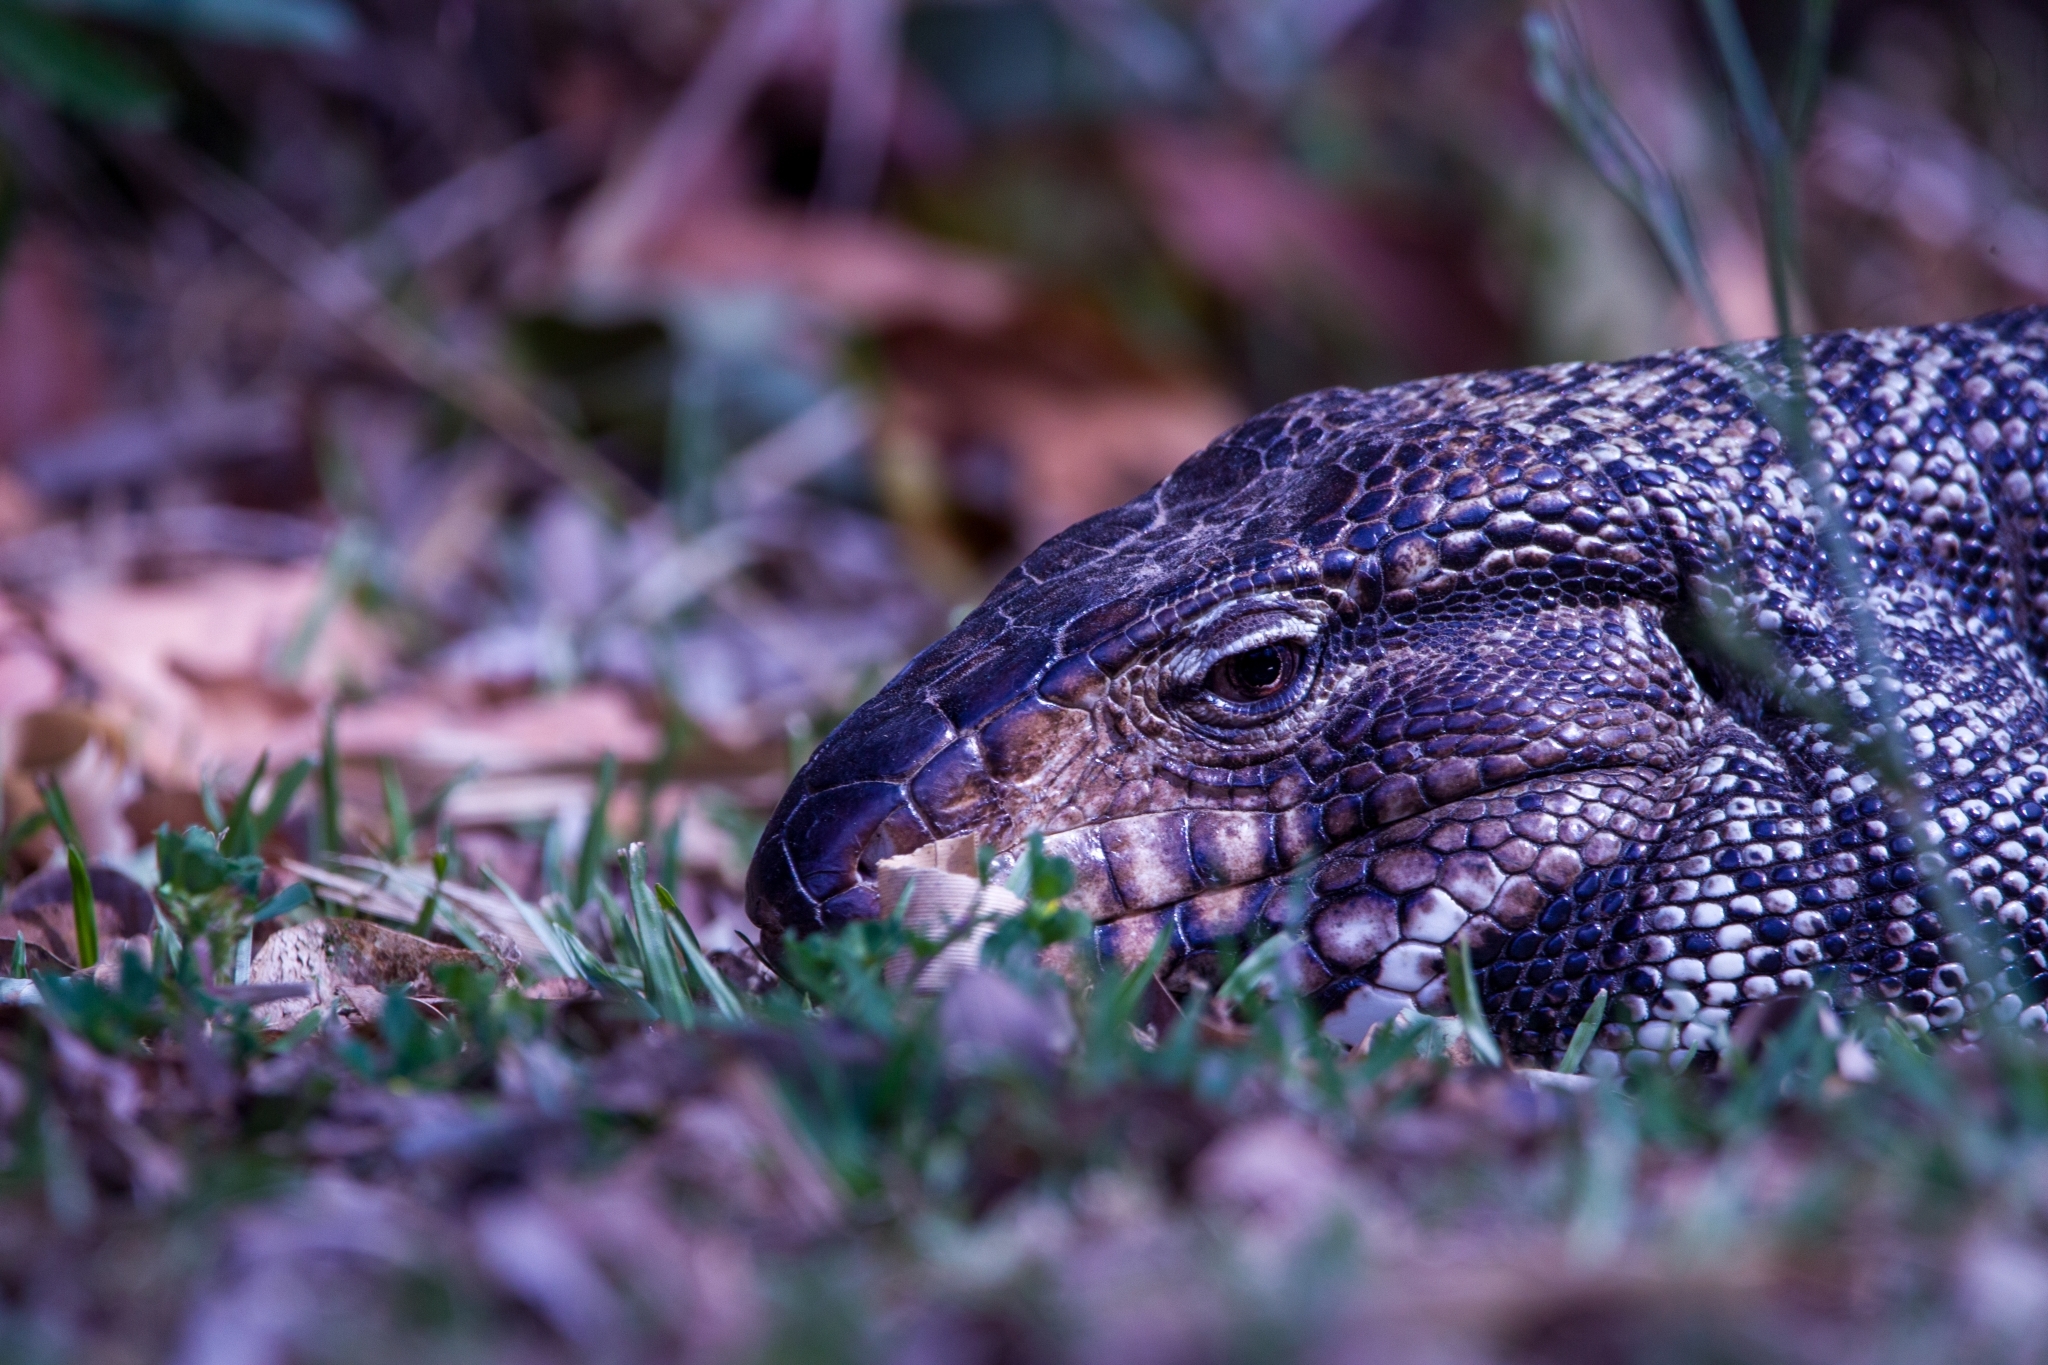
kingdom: Animalia
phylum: Chordata
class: Squamata
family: Teiidae
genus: Salvator
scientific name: Salvator merianae
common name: Argentine black and white tegu
